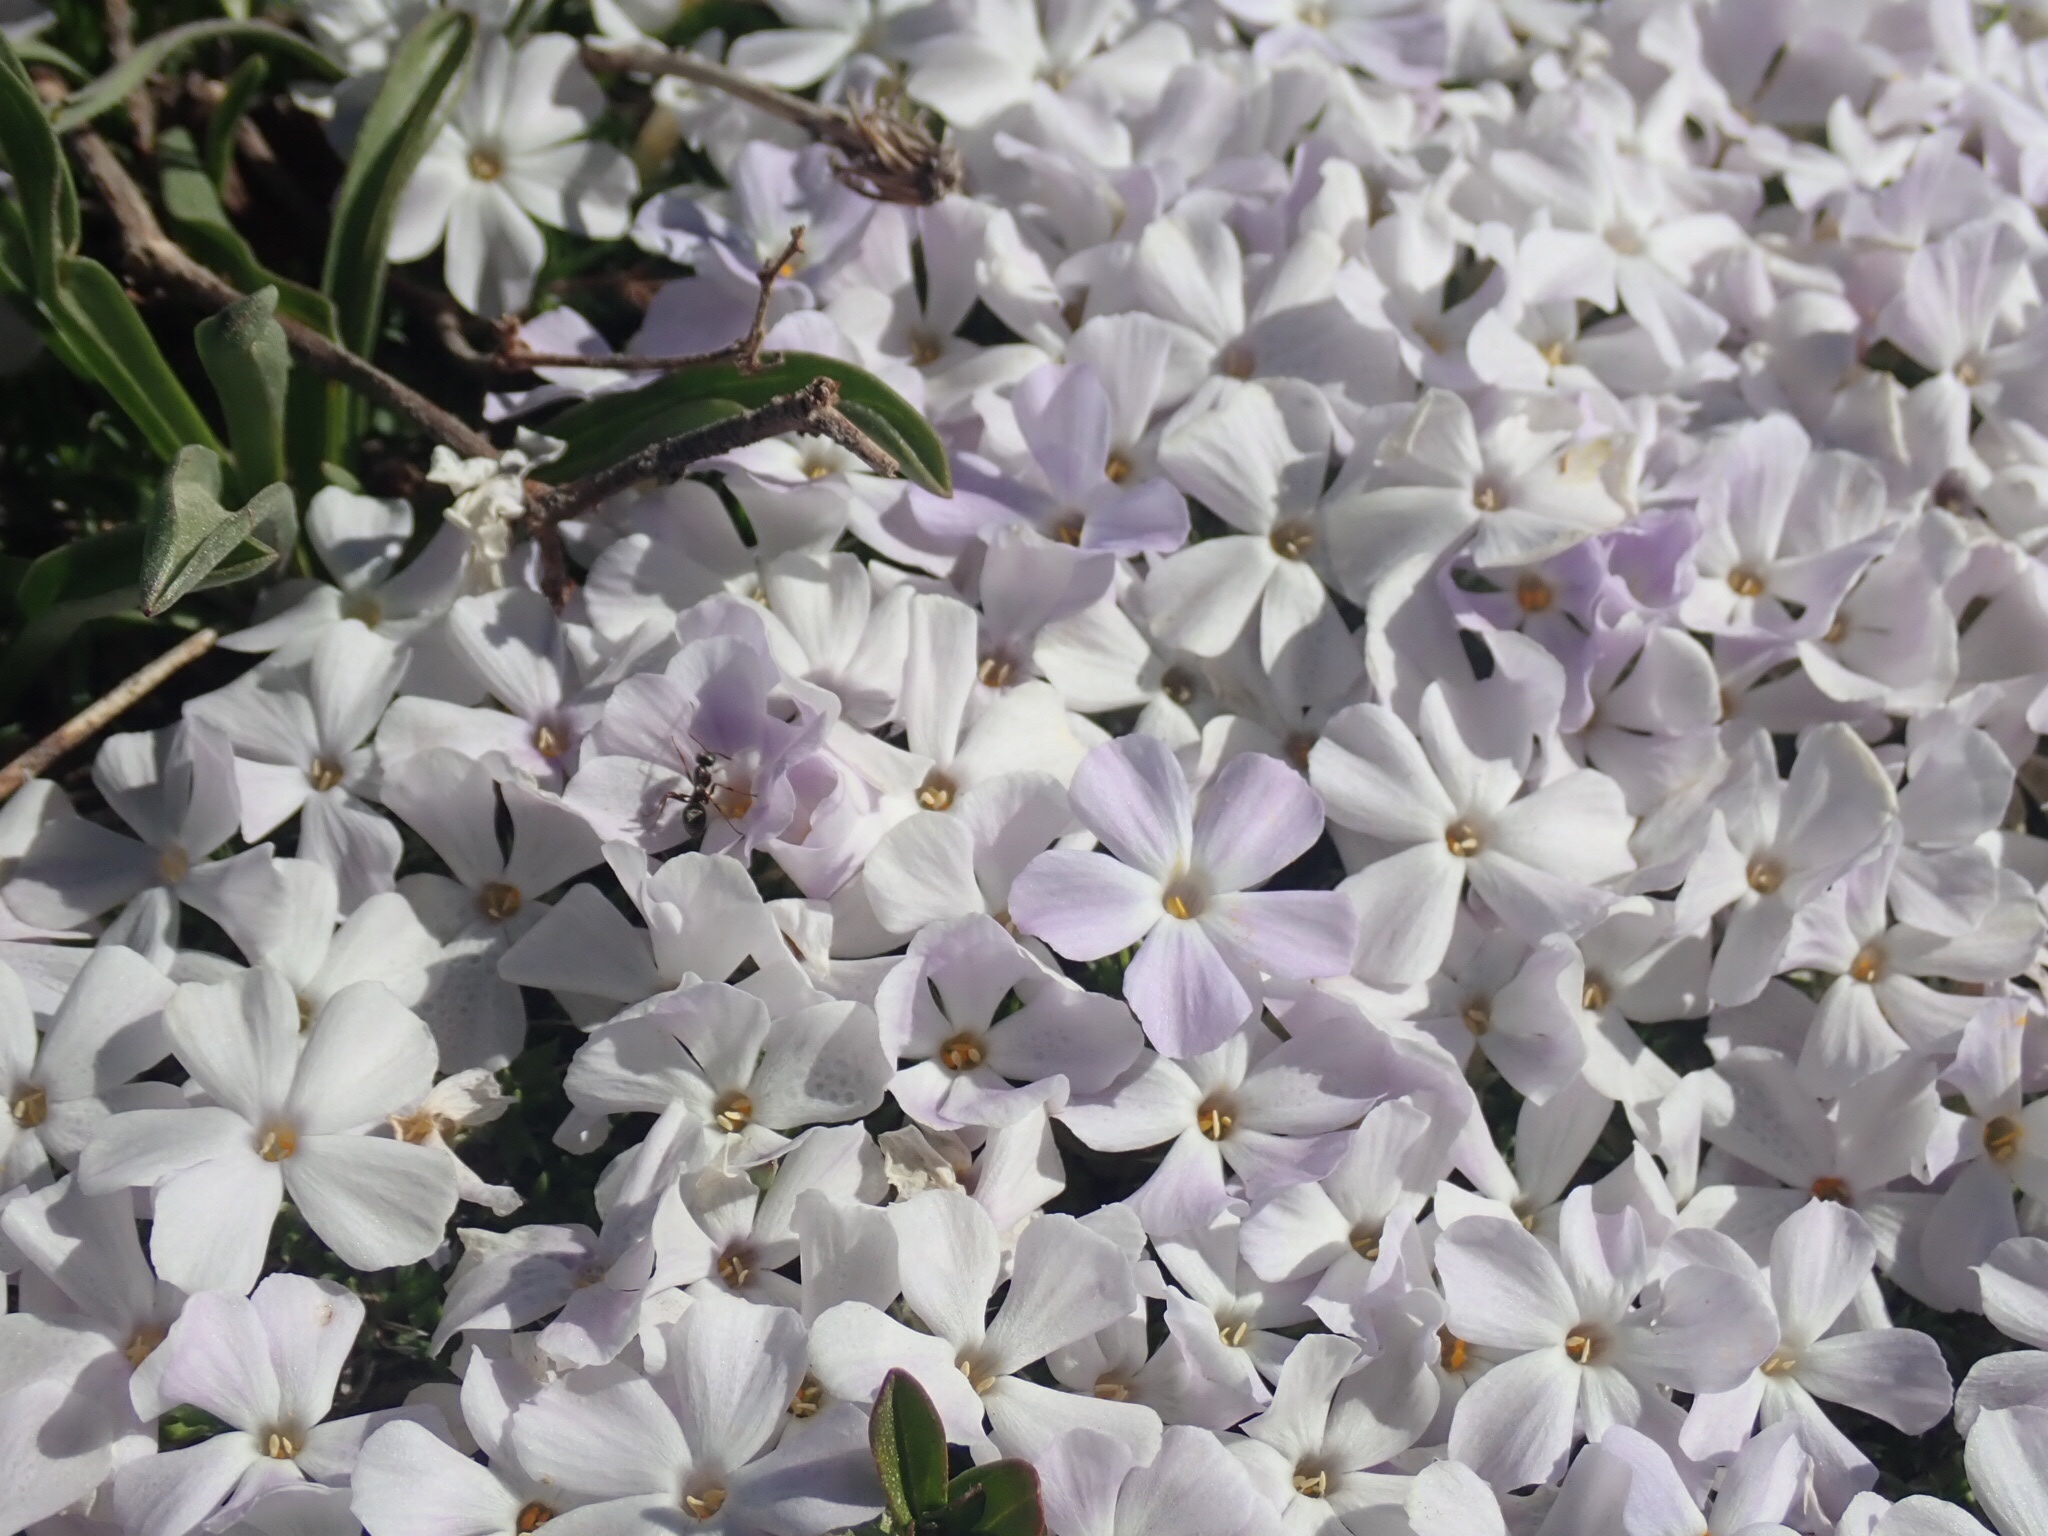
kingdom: Plantae
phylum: Tracheophyta
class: Magnoliopsida
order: Ericales
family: Polemoniaceae
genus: Phlox
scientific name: Phlox diffusa
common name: Mat phlox
